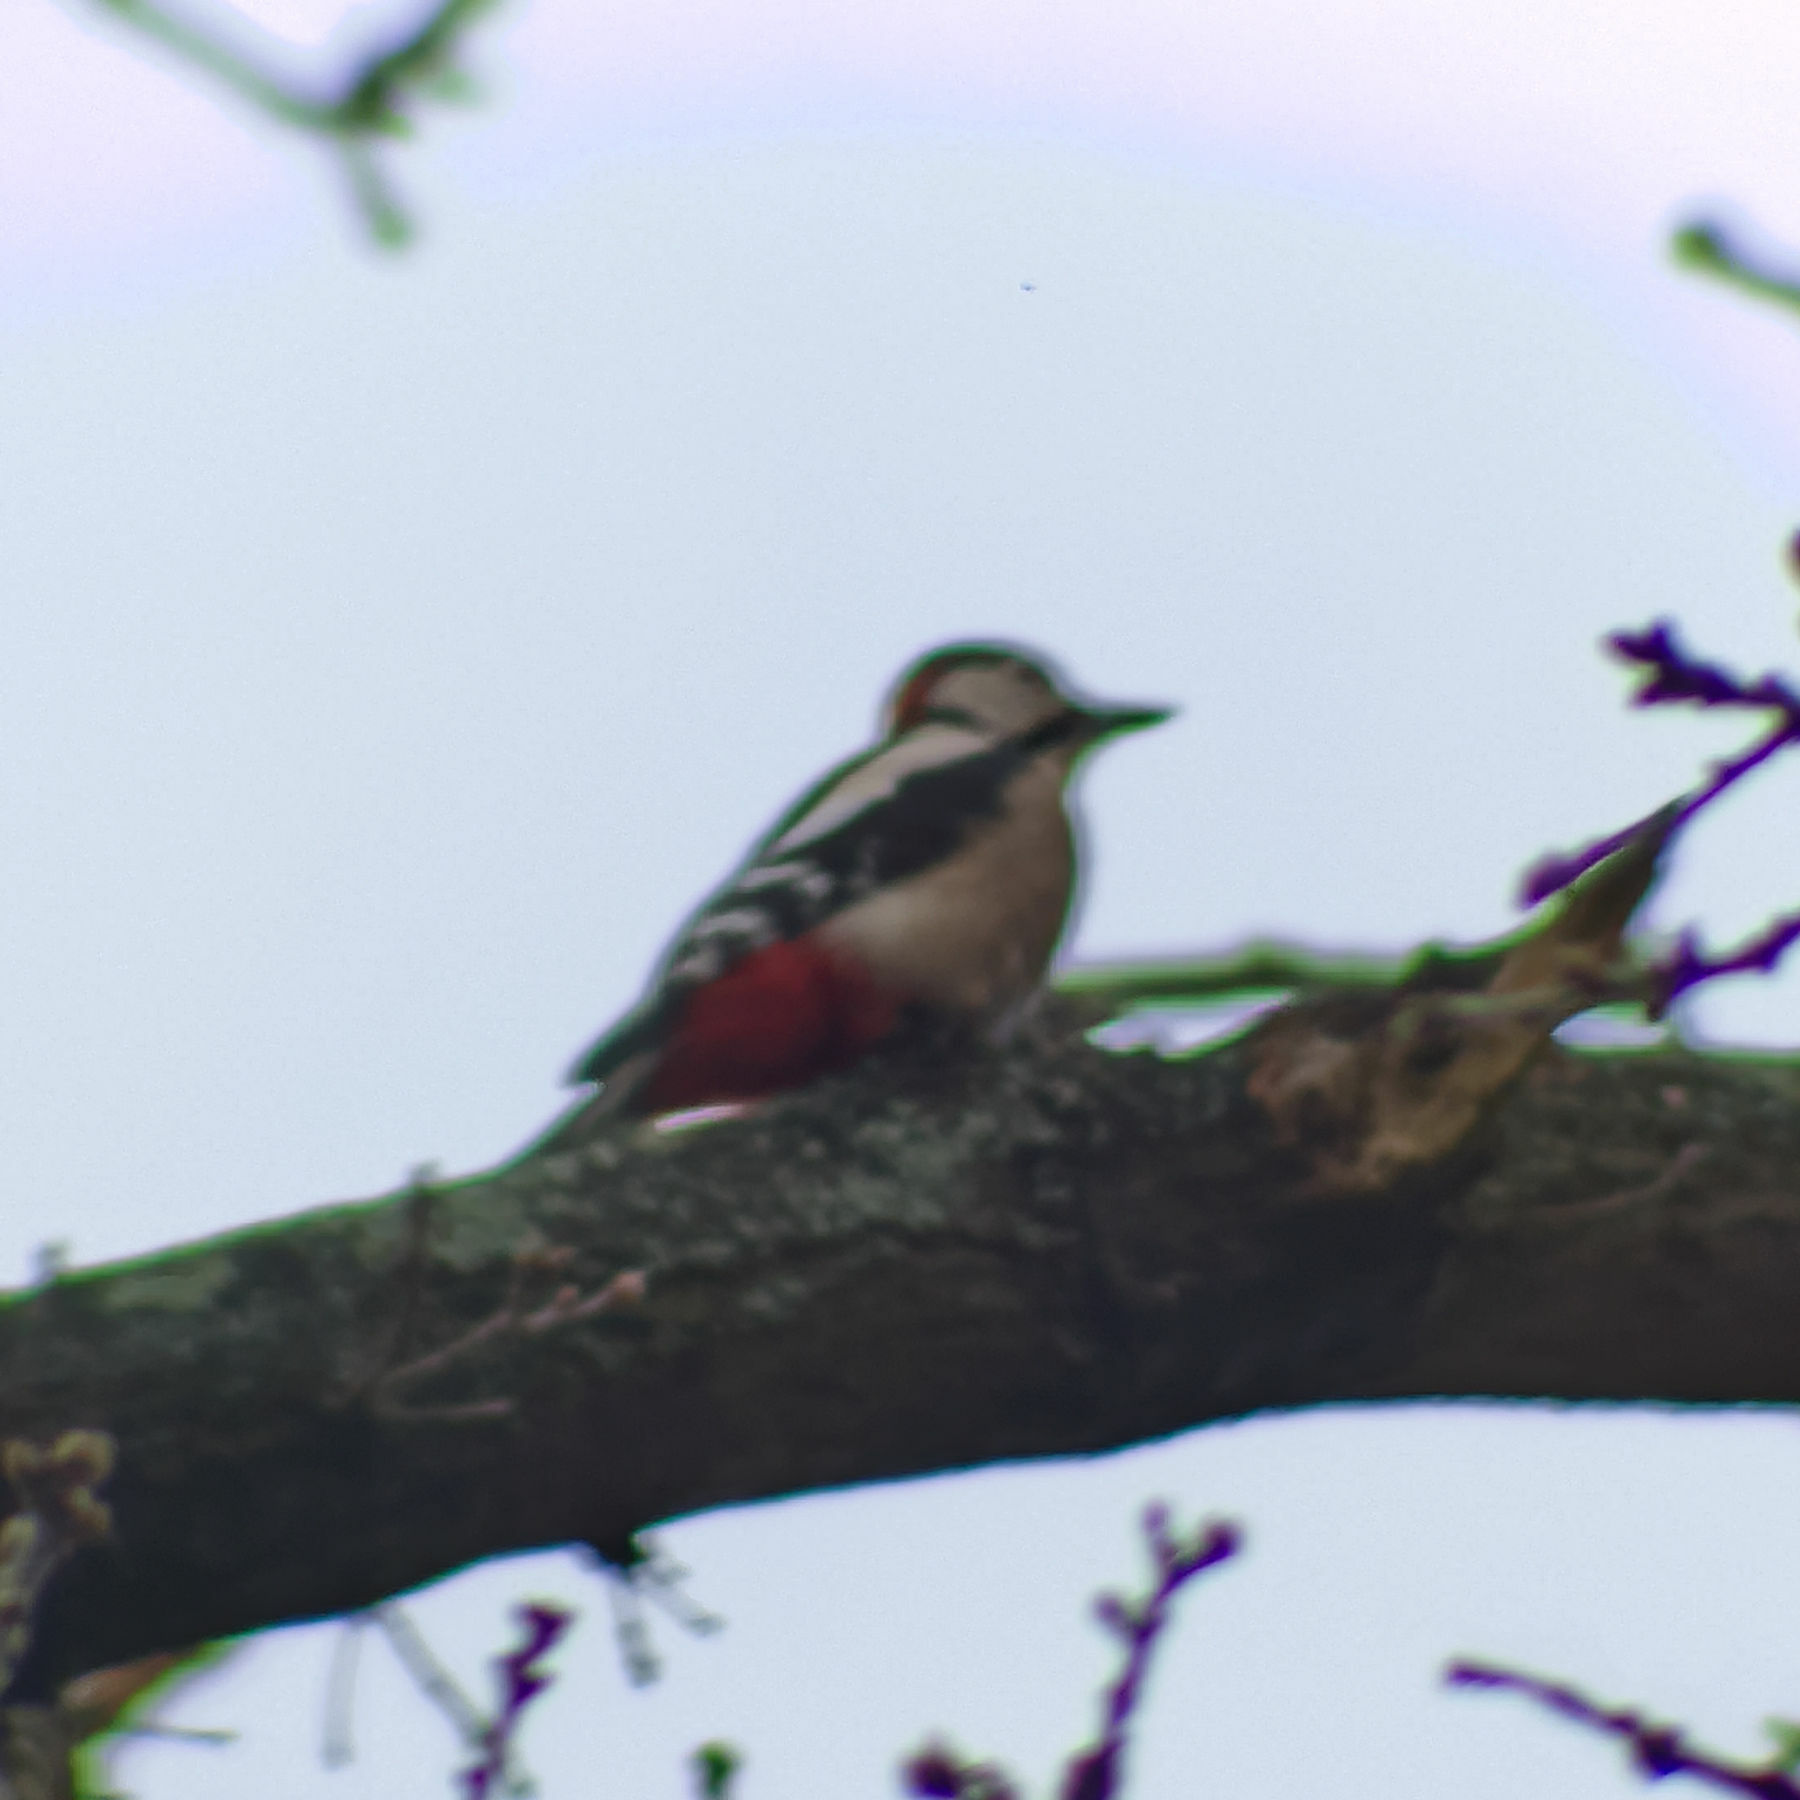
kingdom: Animalia
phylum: Chordata
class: Aves
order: Piciformes
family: Picidae
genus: Dendrocopos
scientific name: Dendrocopos major
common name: Great spotted woodpecker
